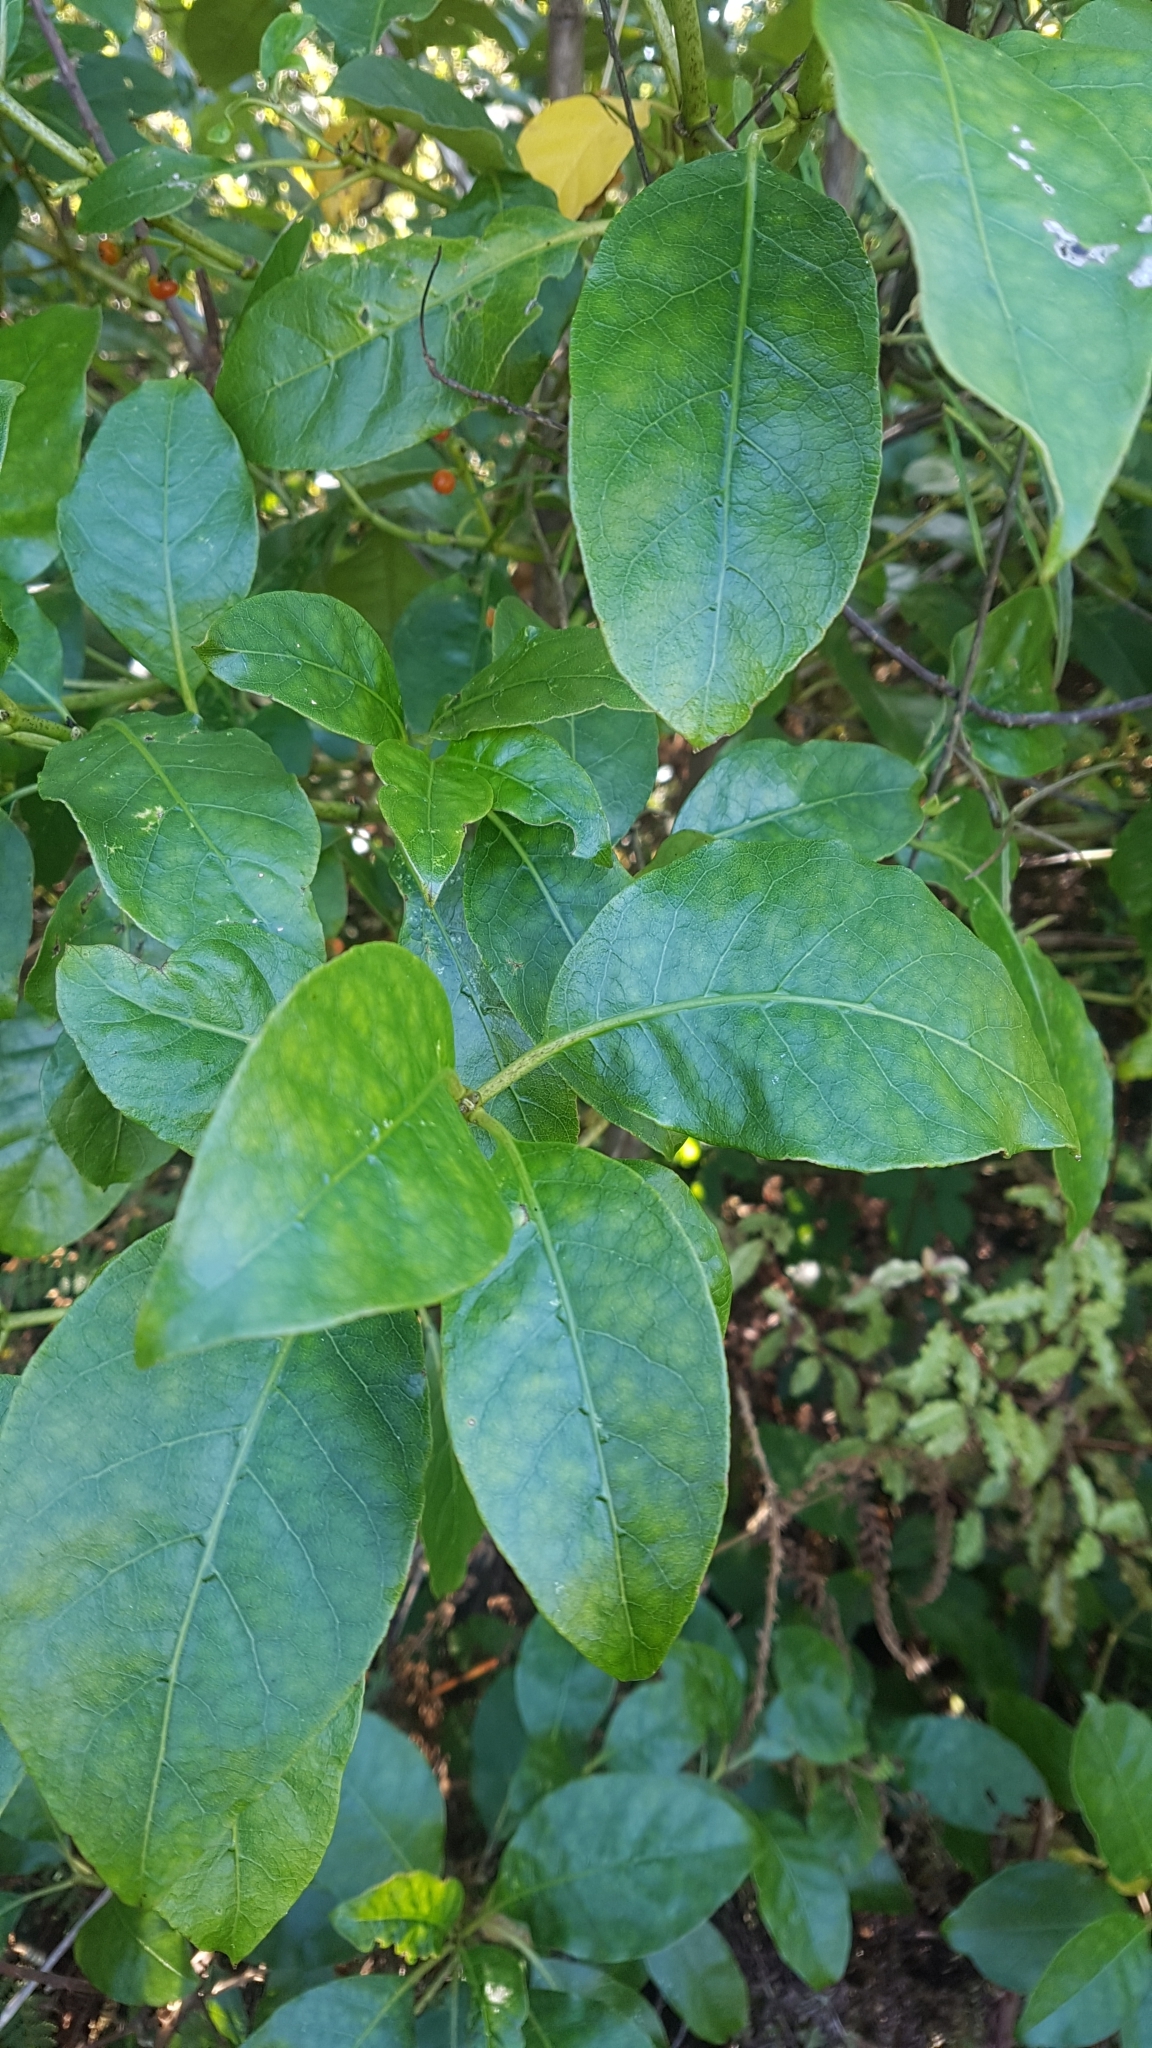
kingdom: Plantae
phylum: Tracheophyta
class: Magnoliopsida
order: Gentianales
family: Rubiaceae
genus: Coprosma
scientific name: Coprosma autumnalis
